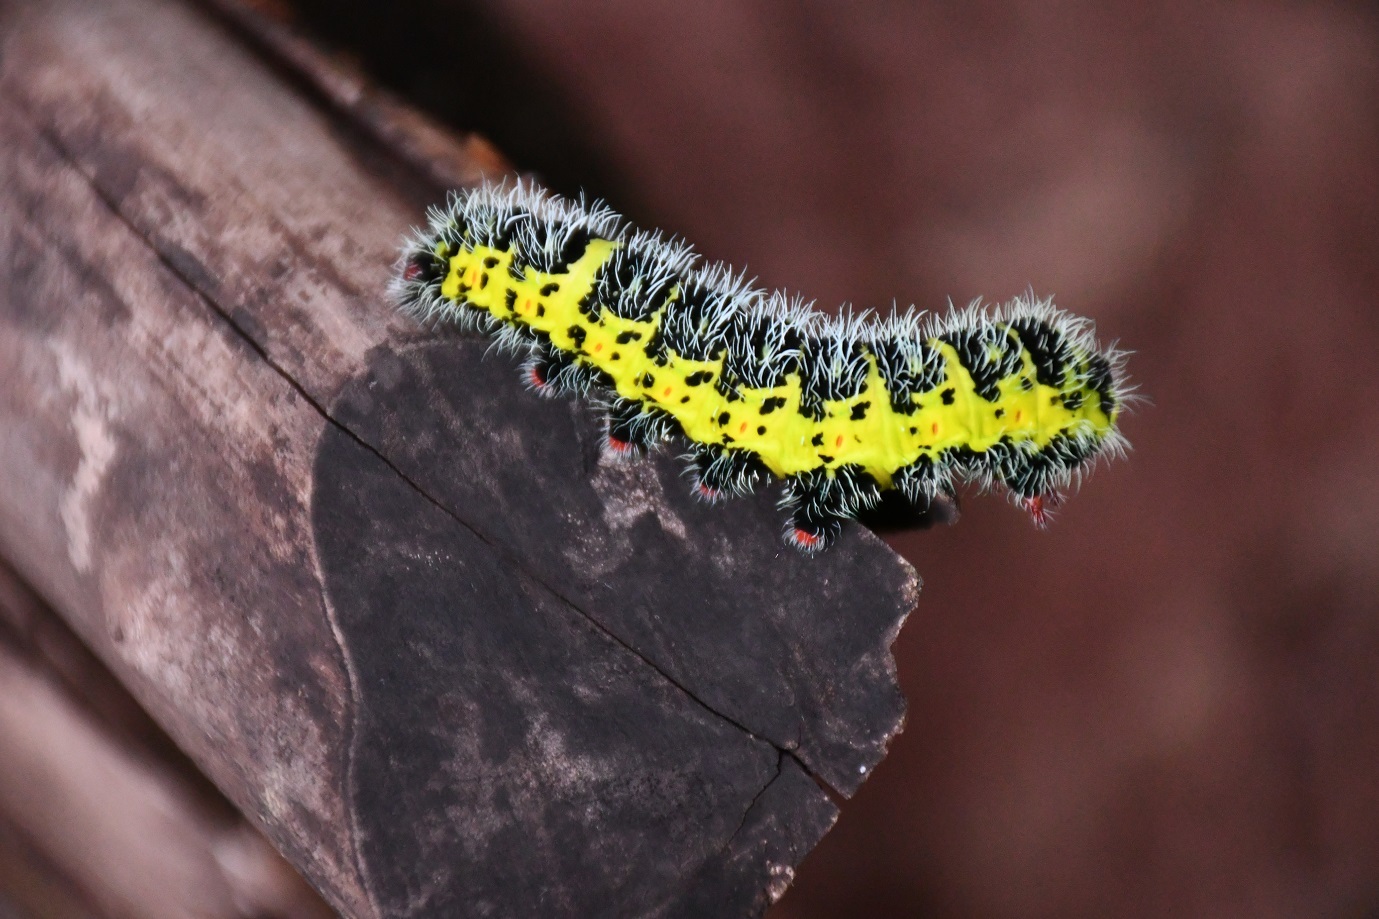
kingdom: Animalia
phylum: Arthropoda
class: Insecta
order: Lepidoptera
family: Saturniidae
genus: Copaxa
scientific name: Copaxa multifenestrata
